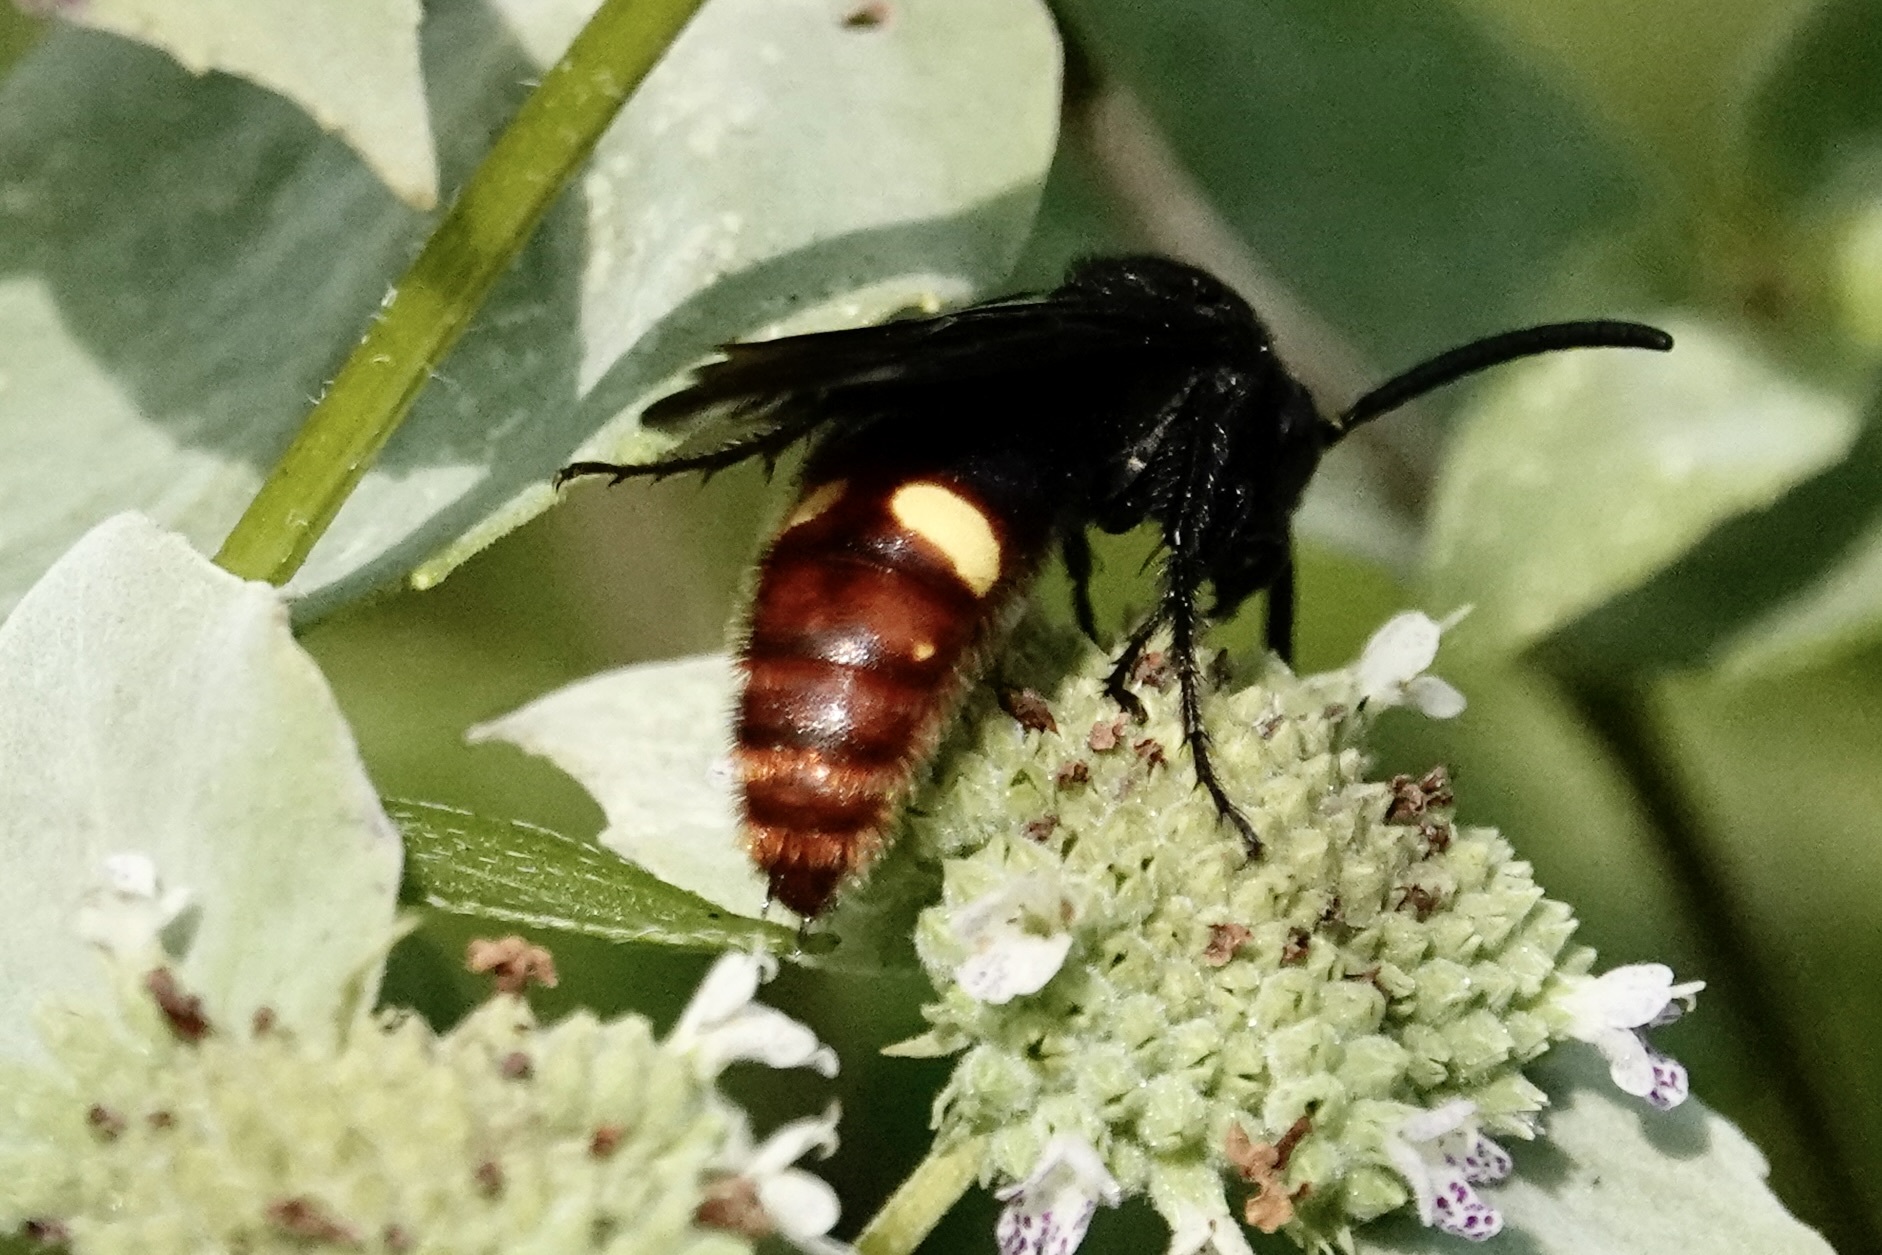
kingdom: Animalia
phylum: Arthropoda
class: Insecta
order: Hymenoptera
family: Scoliidae
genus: Scolia
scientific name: Scolia dubia
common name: Blue-winged scoliid wasp
